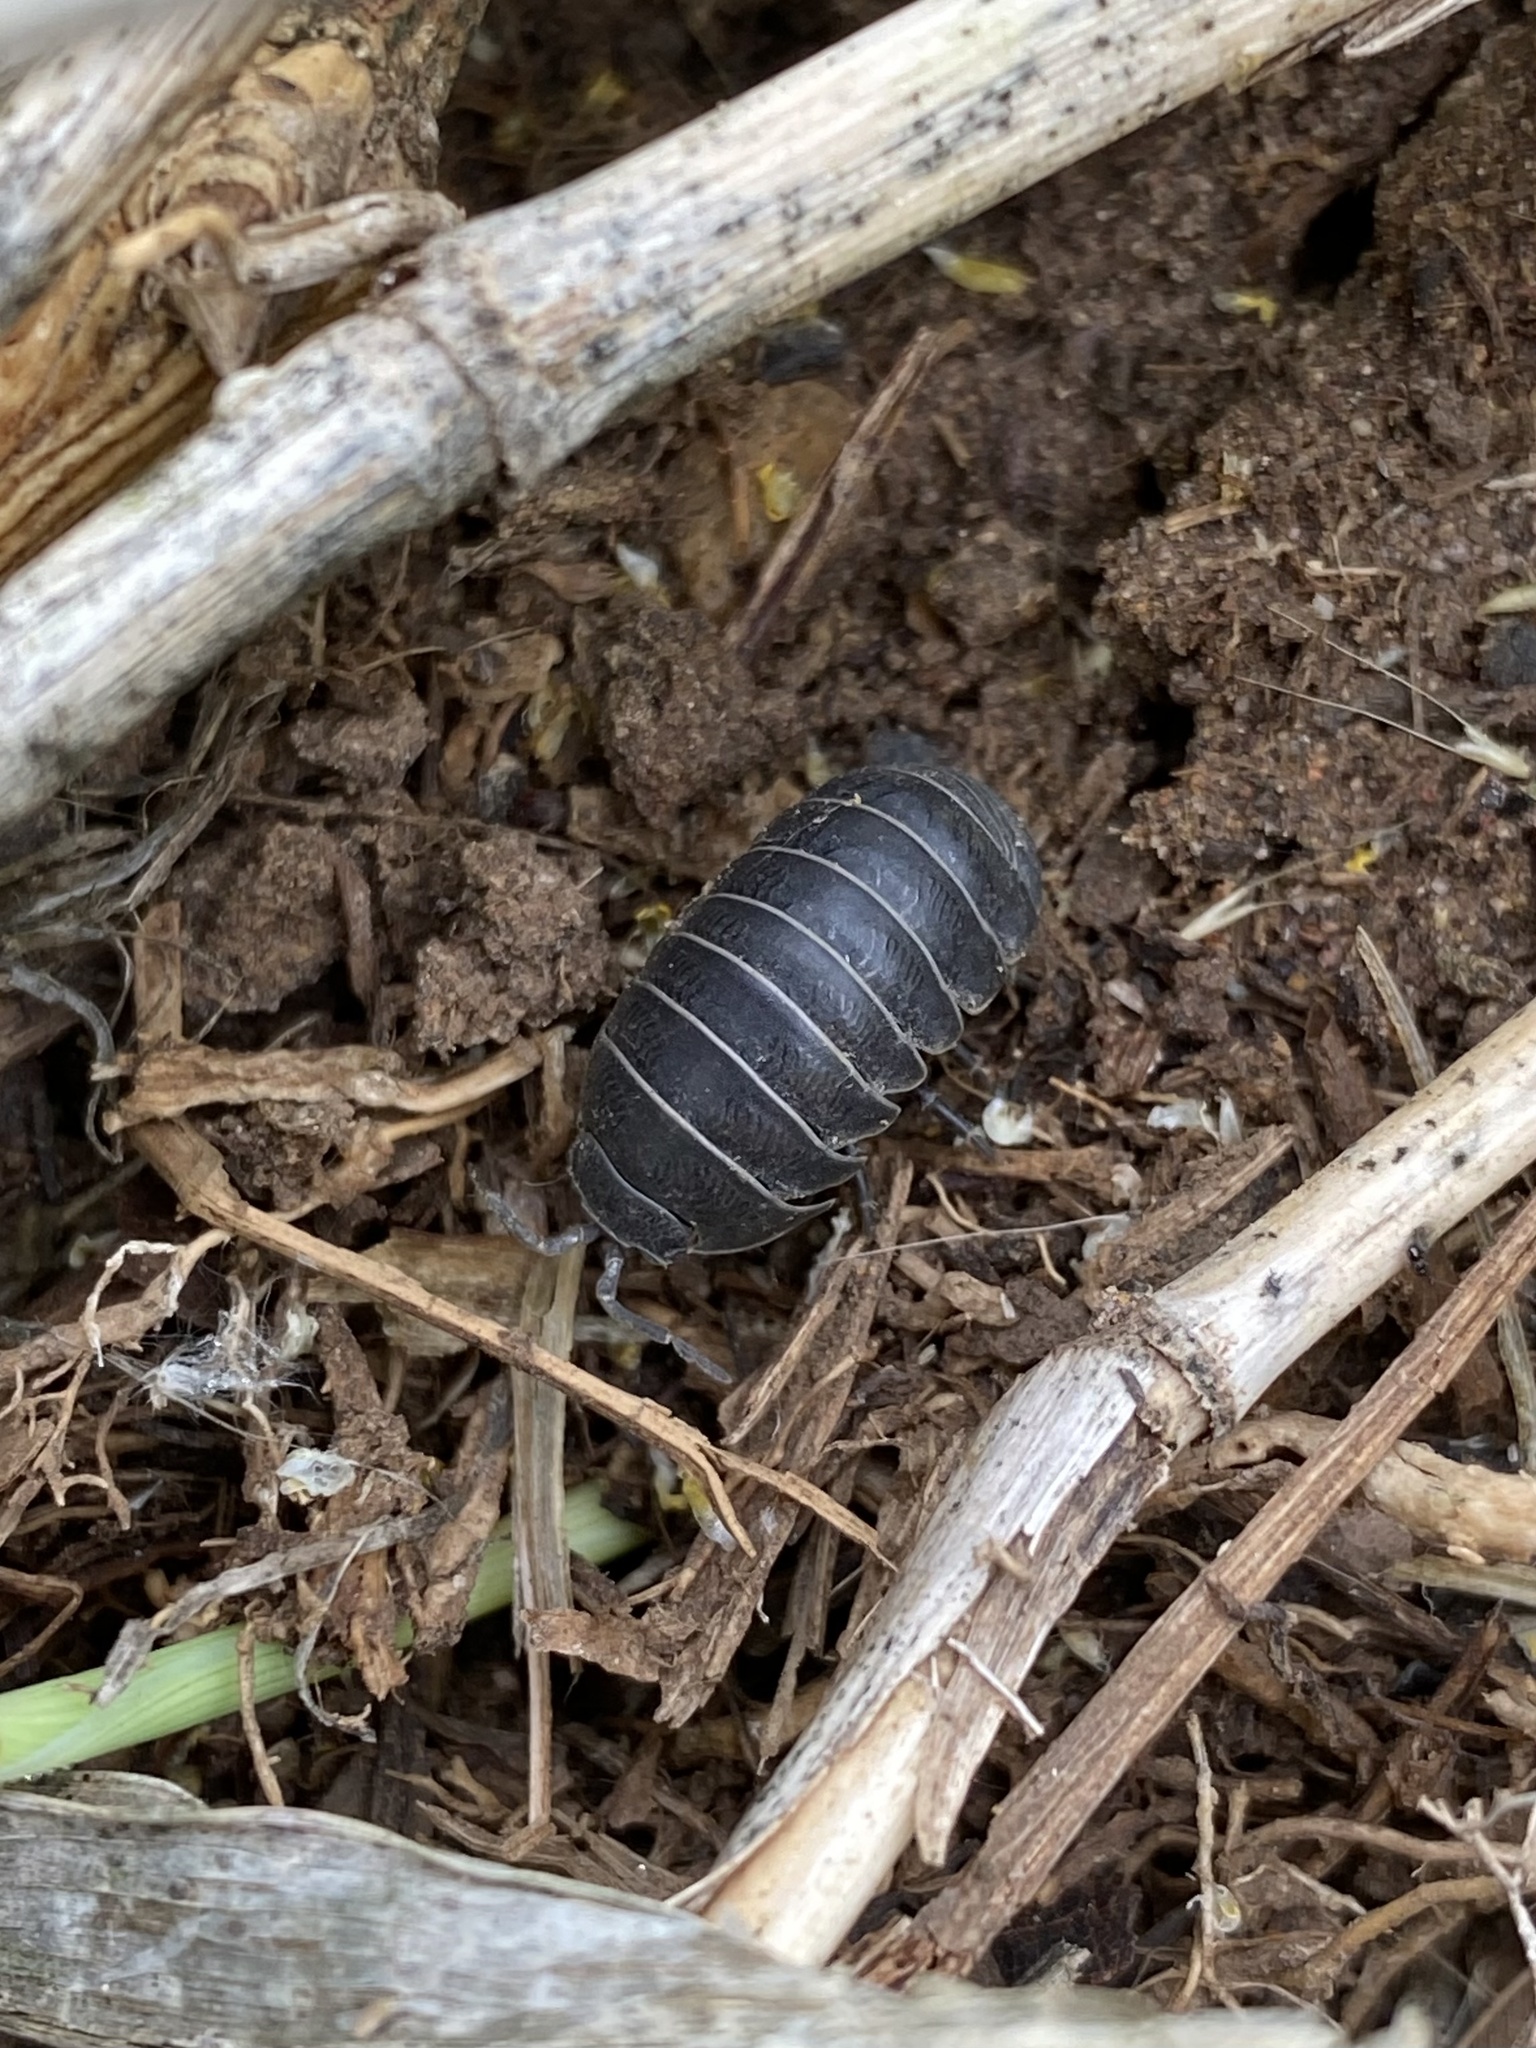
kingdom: Animalia
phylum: Arthropoda
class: Malacostraca
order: Isopoda
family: Armadillidiidae
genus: Armadillidium
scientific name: Armadillidium vulgare
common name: Common pill woodlouse
